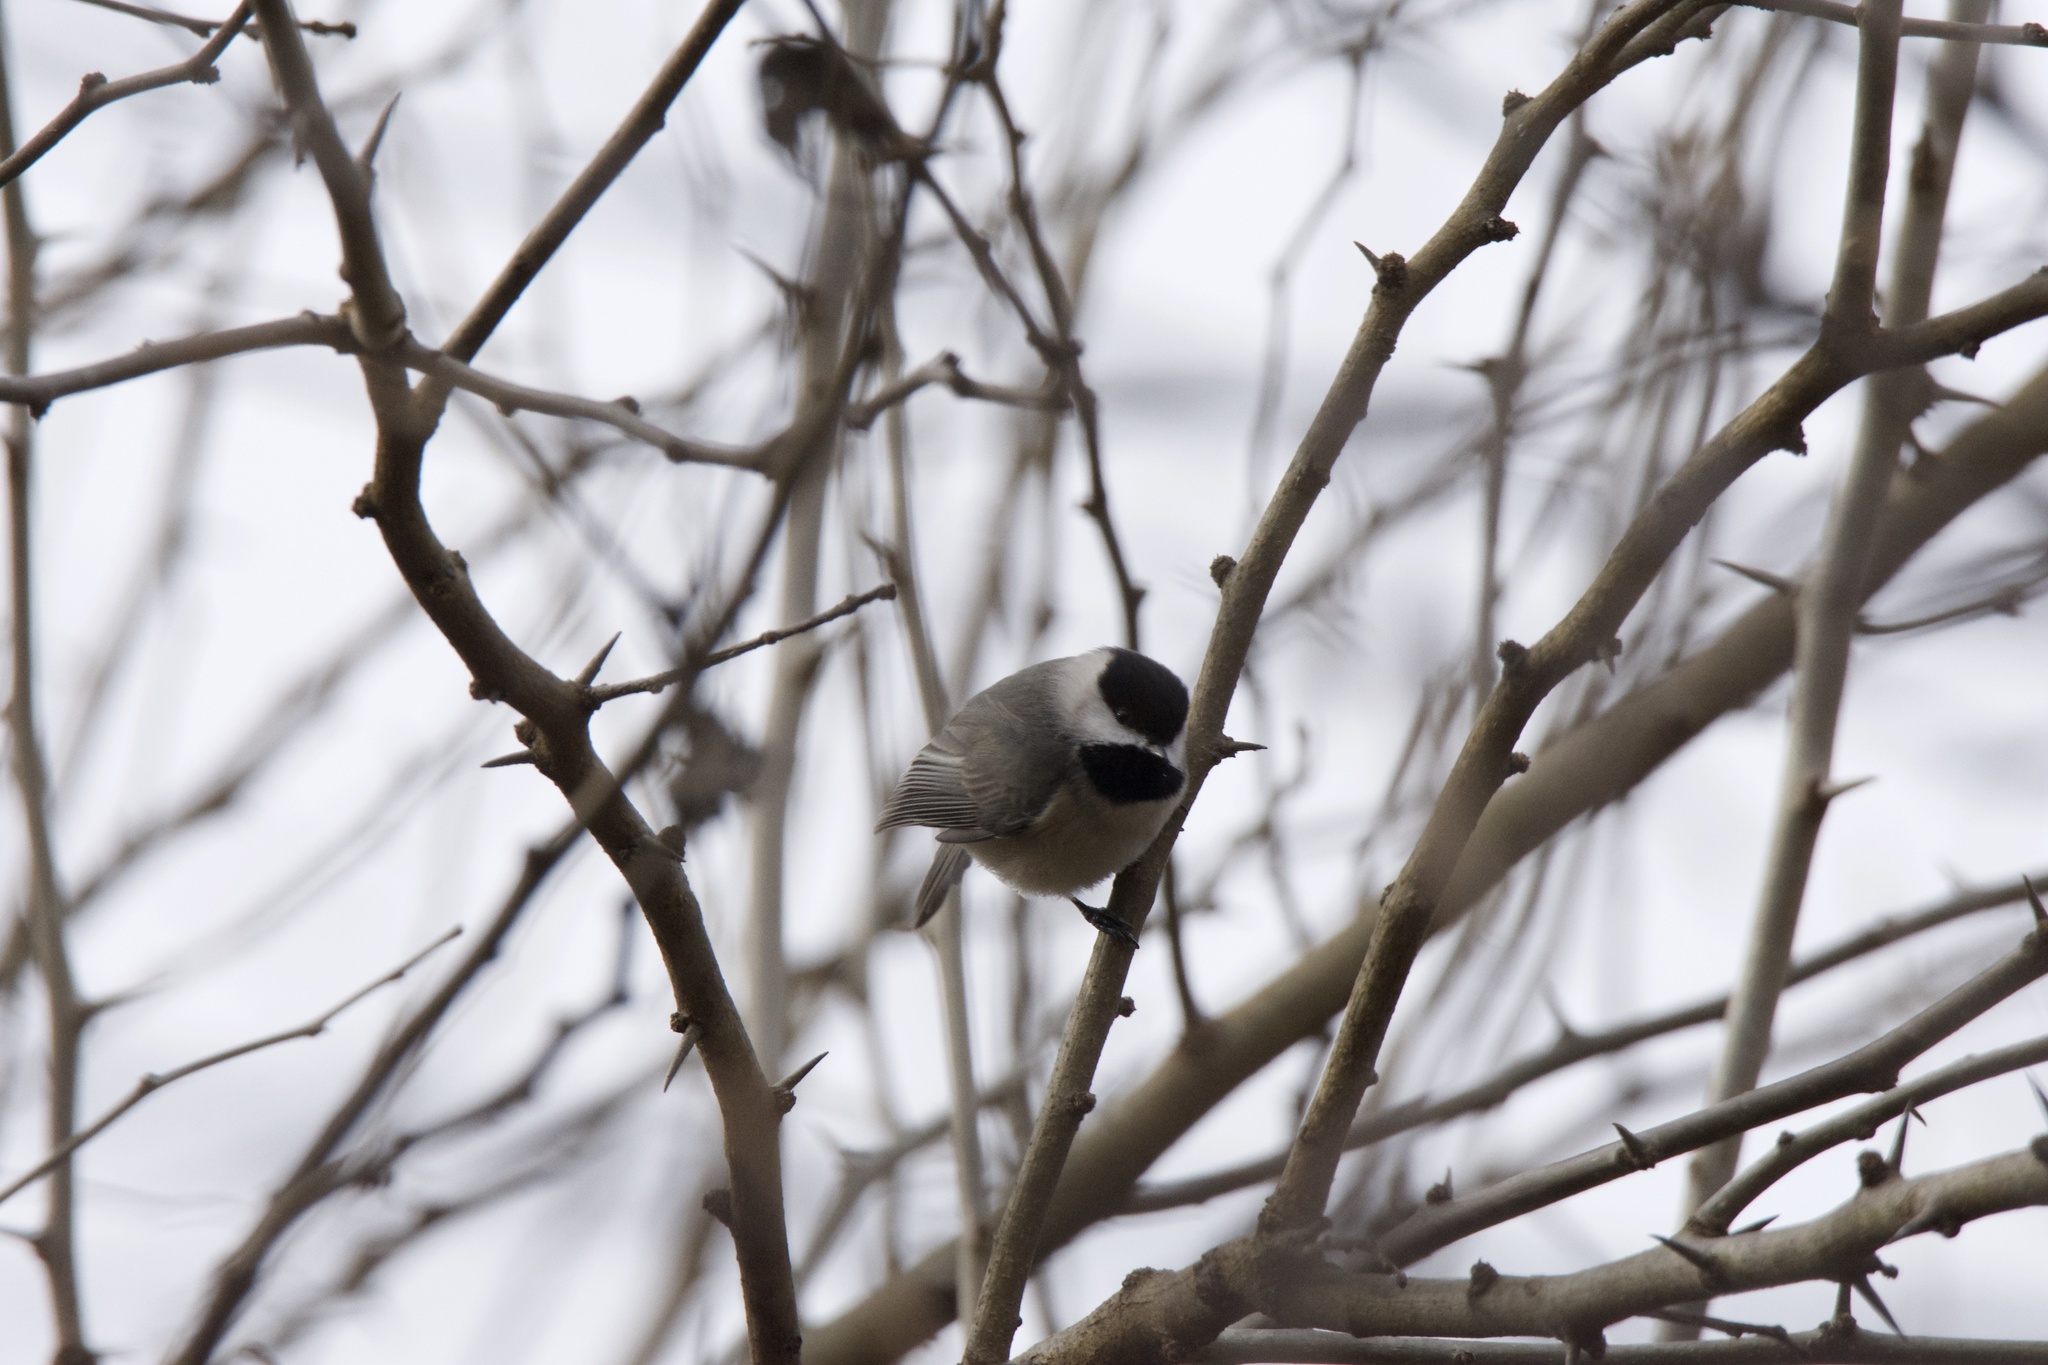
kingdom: Animalia
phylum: Chordata
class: Aves
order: Passeriformes
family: Paridae
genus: Poecile
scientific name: Poecile carolinensis
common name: Carolina chickadee
